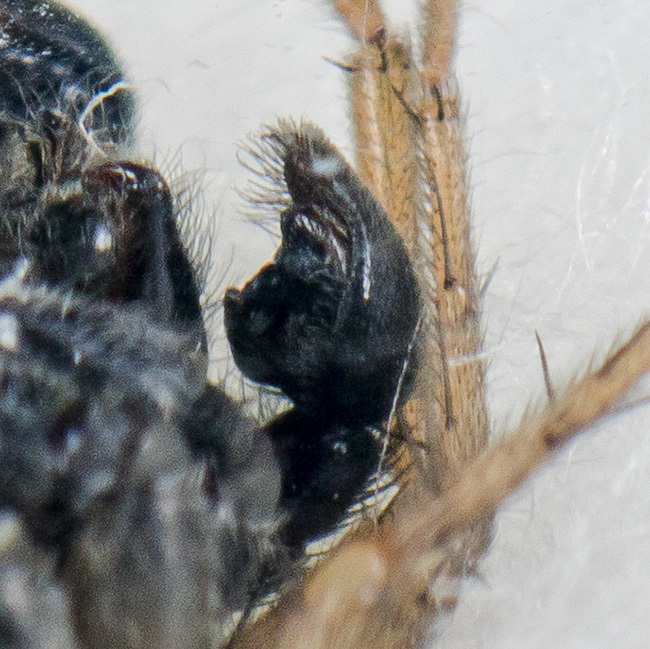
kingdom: Animalia
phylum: Arthropoda
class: Arachnida
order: Araneae
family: Lycosidae
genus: Pardosa
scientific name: Pardosa zonsteini
